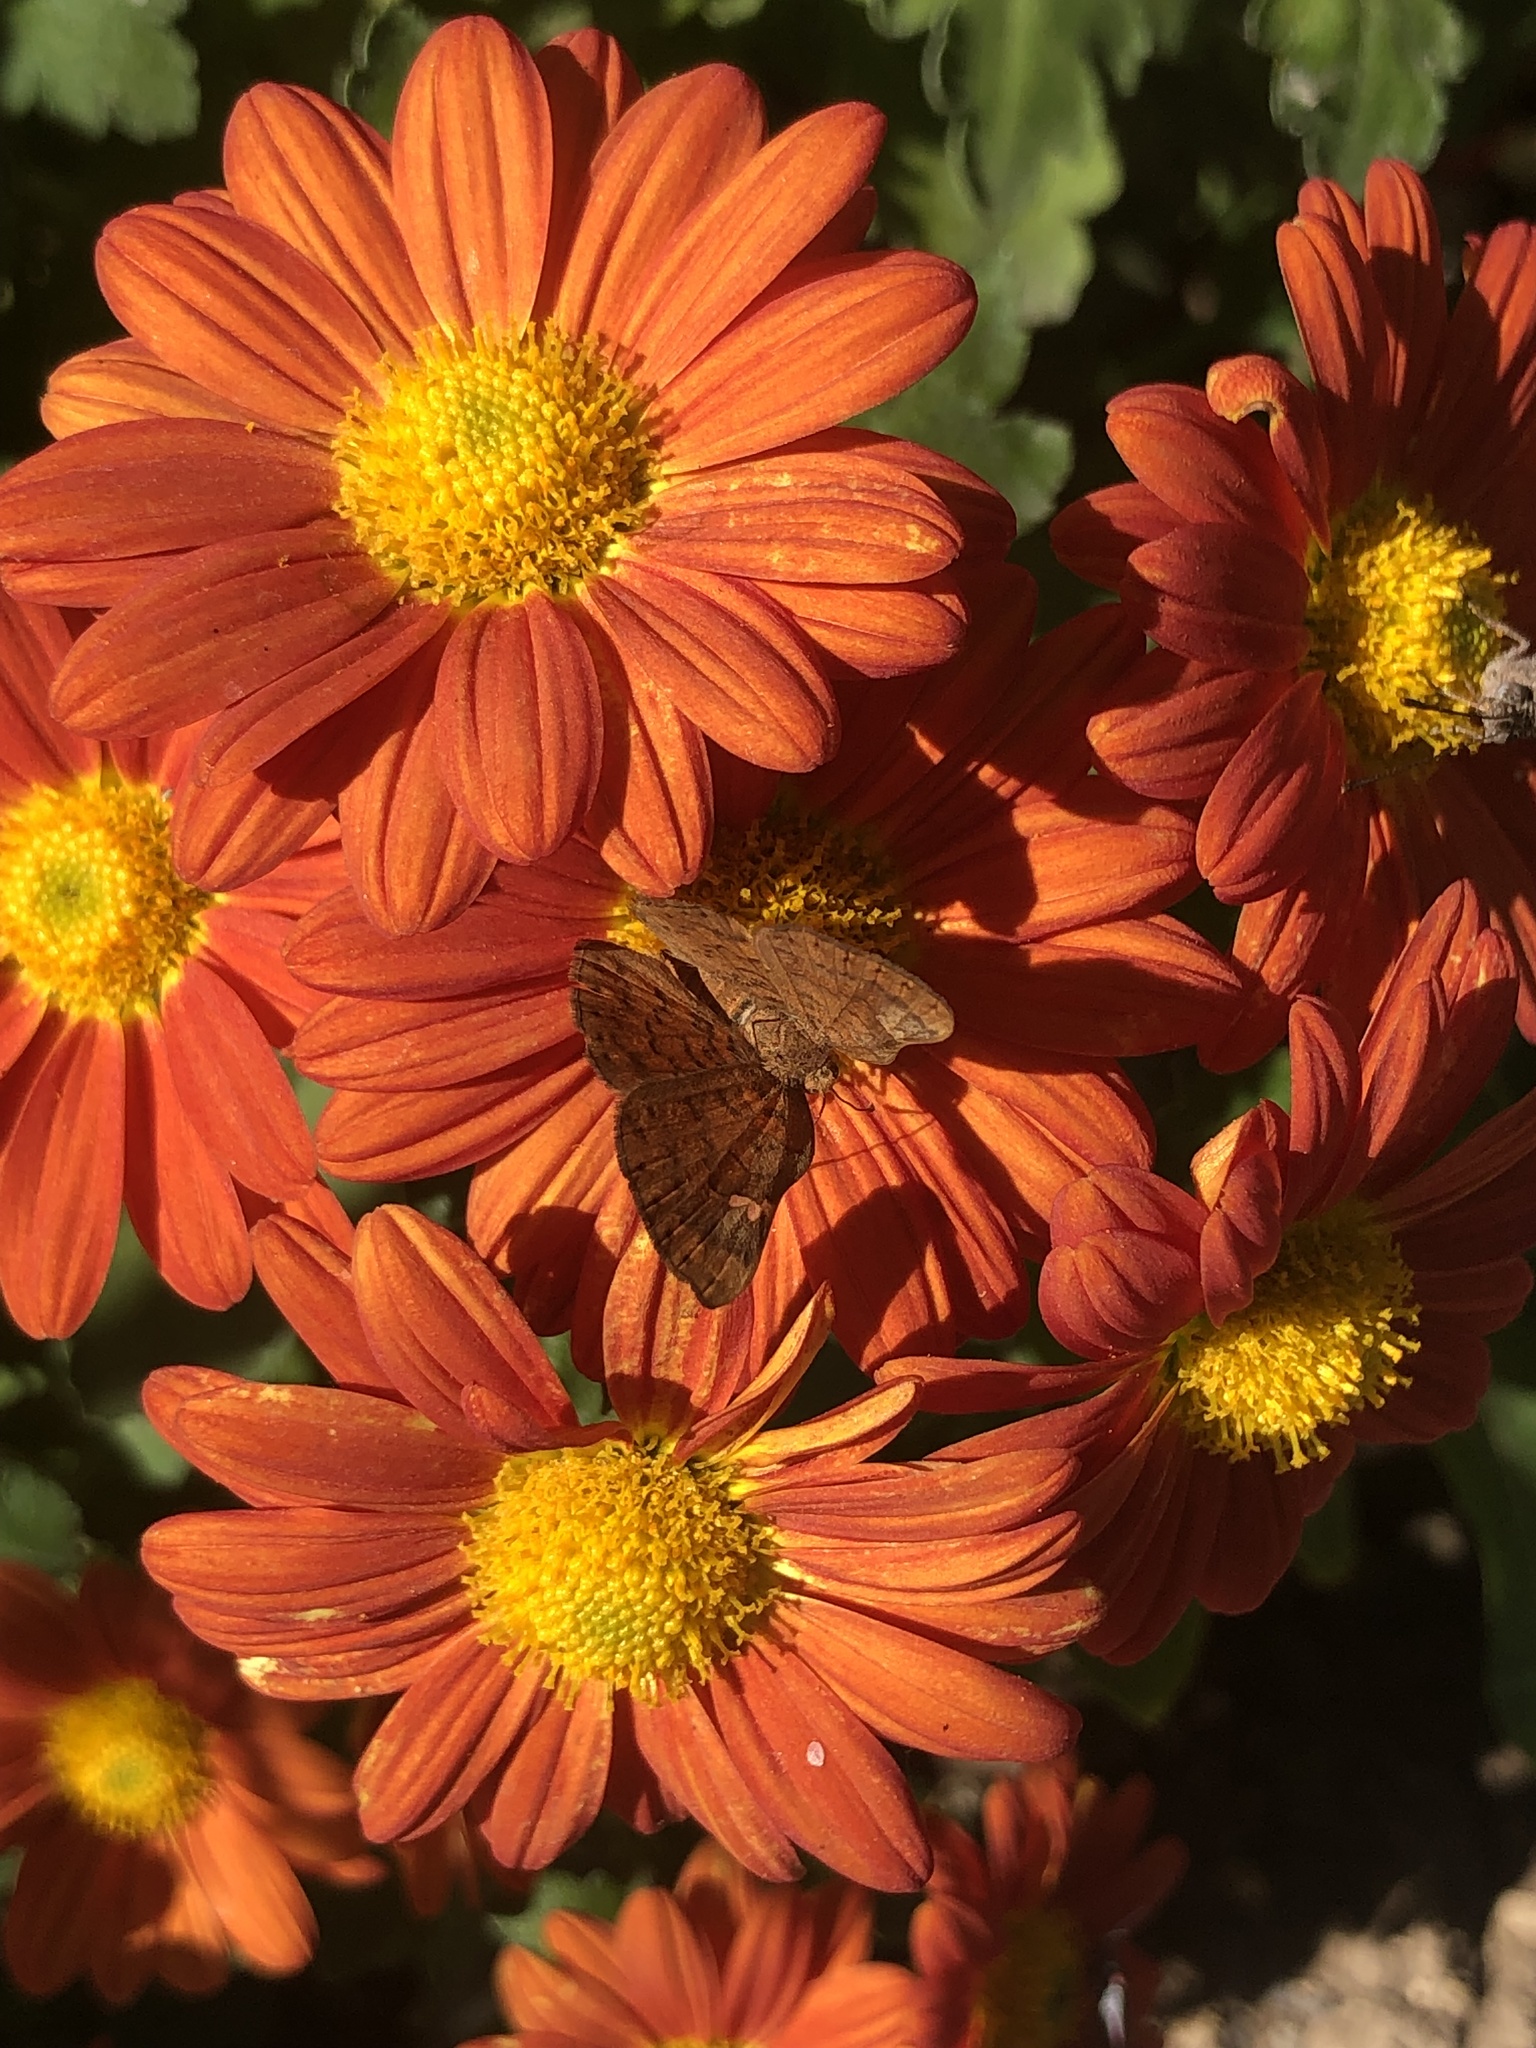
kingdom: Animalia
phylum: Arthropoda
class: Insecta
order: Lepidoptera
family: Riodinidae
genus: Curvie
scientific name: Curvie emesia
